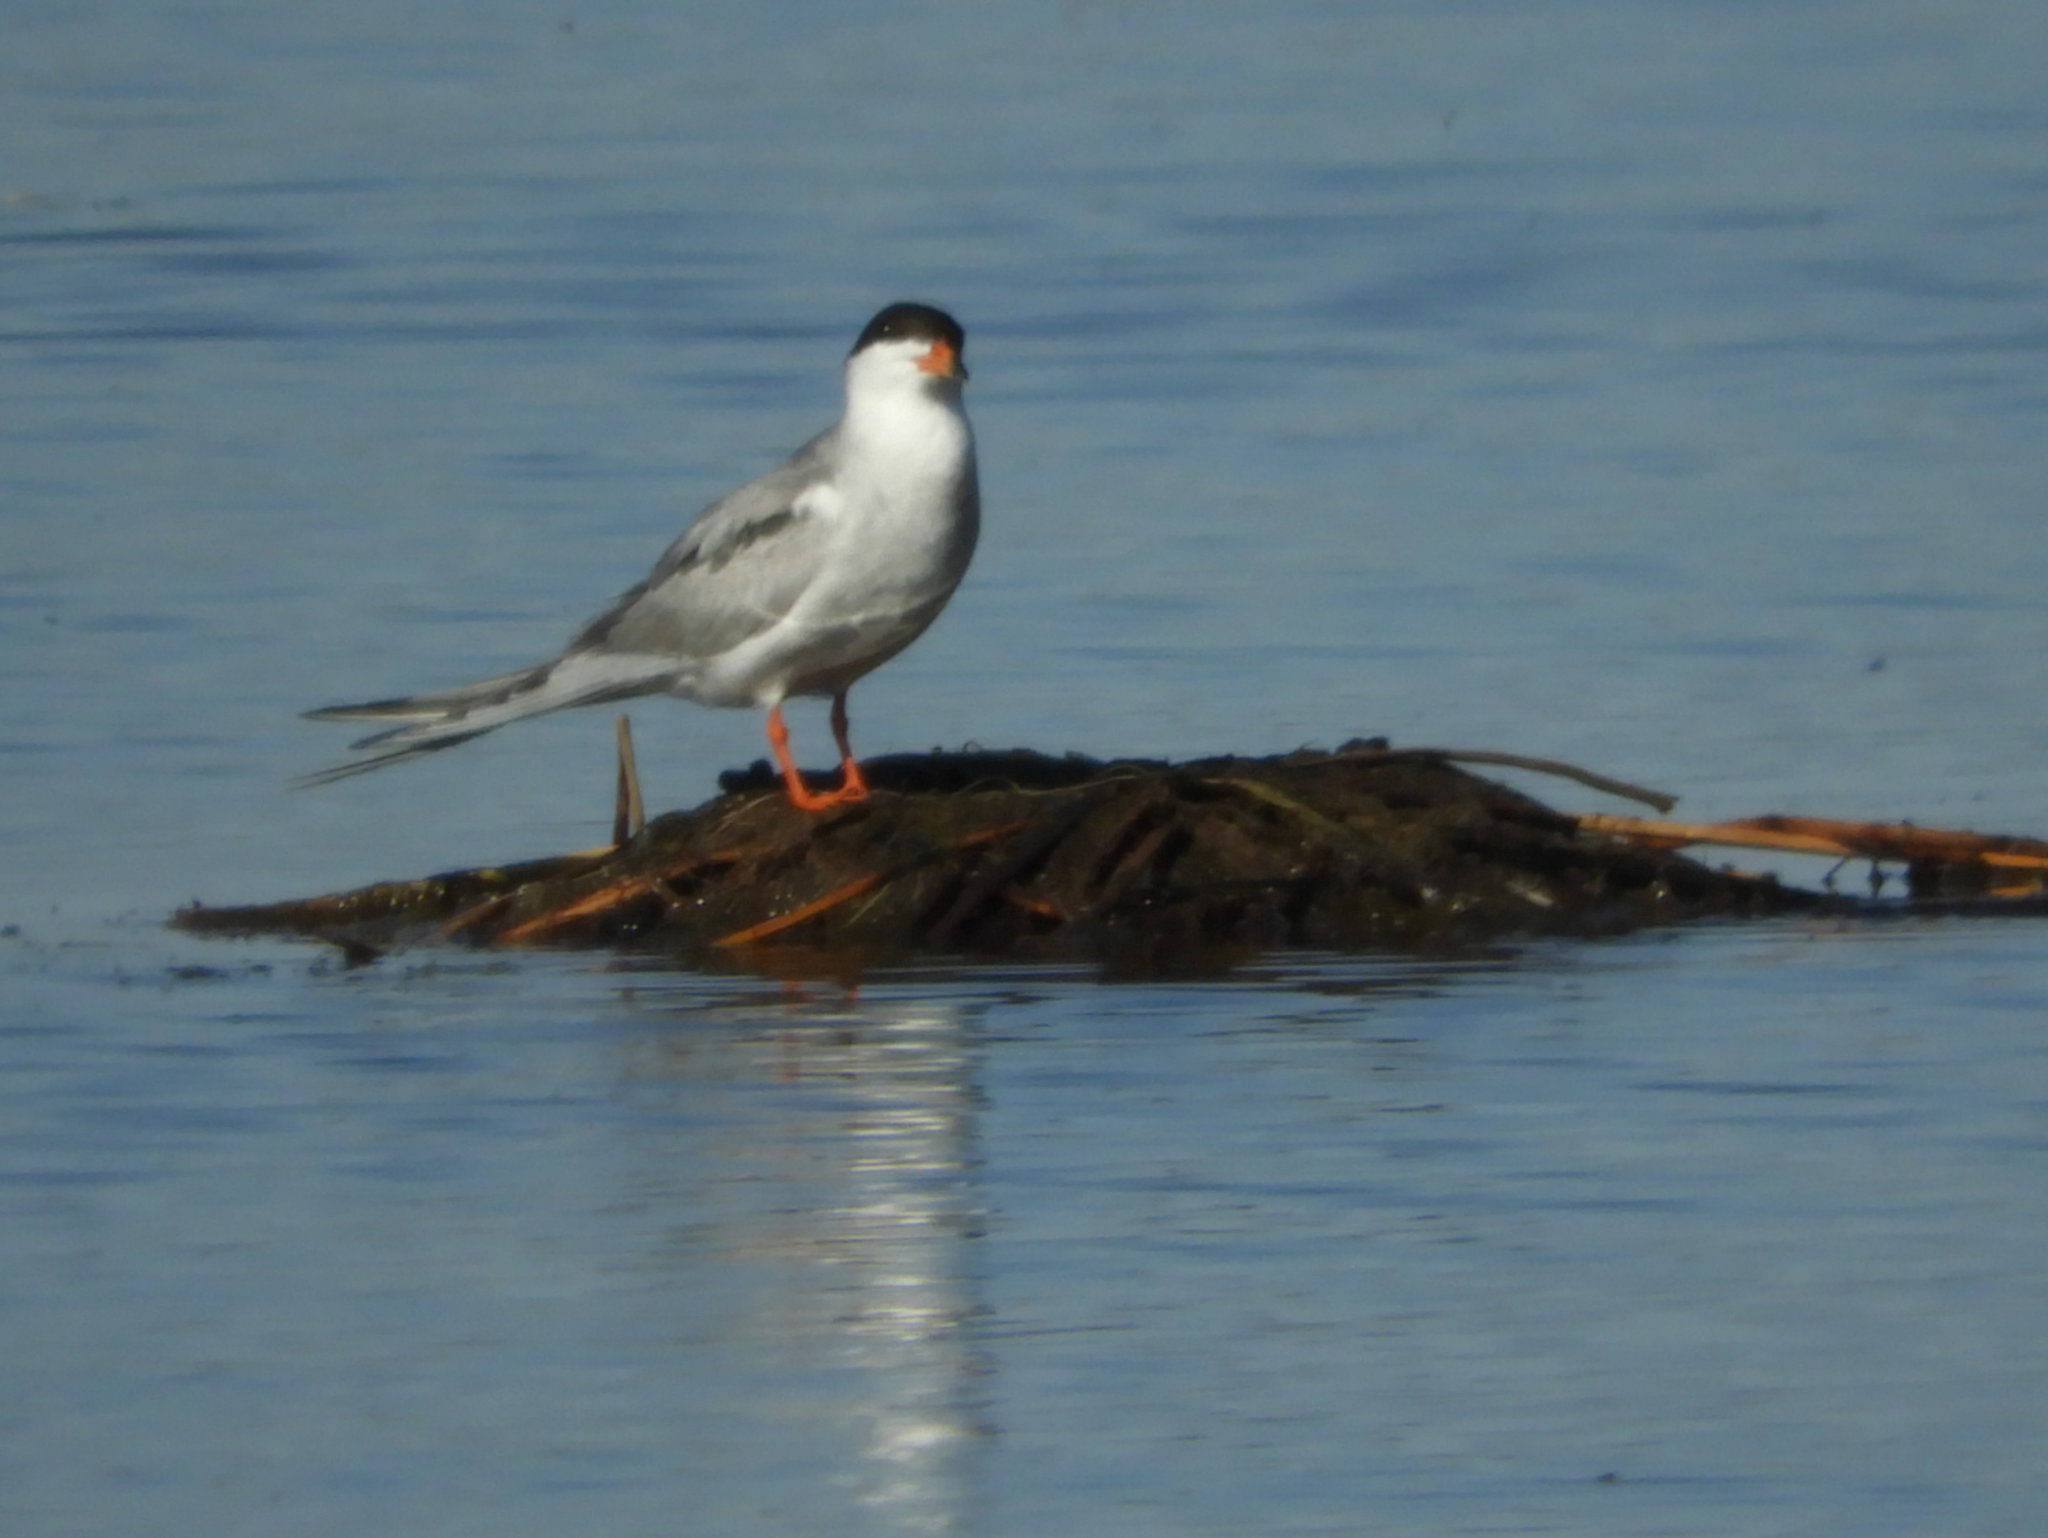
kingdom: Animalia
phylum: Chordata
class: Aves
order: Charadriiformes
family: Laridae
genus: Sterna
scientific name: Sterna forsteri
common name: Forster's tern
